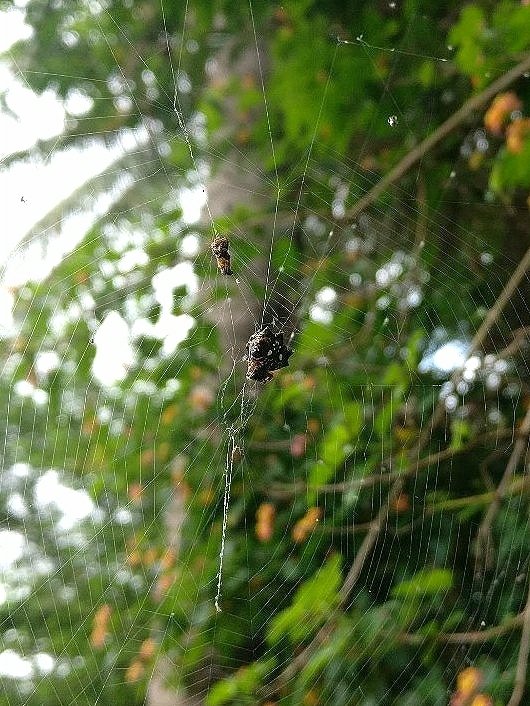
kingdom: Animalia
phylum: Arthropoda
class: Arachnida
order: Araneae
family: Araneidae
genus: Thelacantha
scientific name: Thelacantha brevispina
